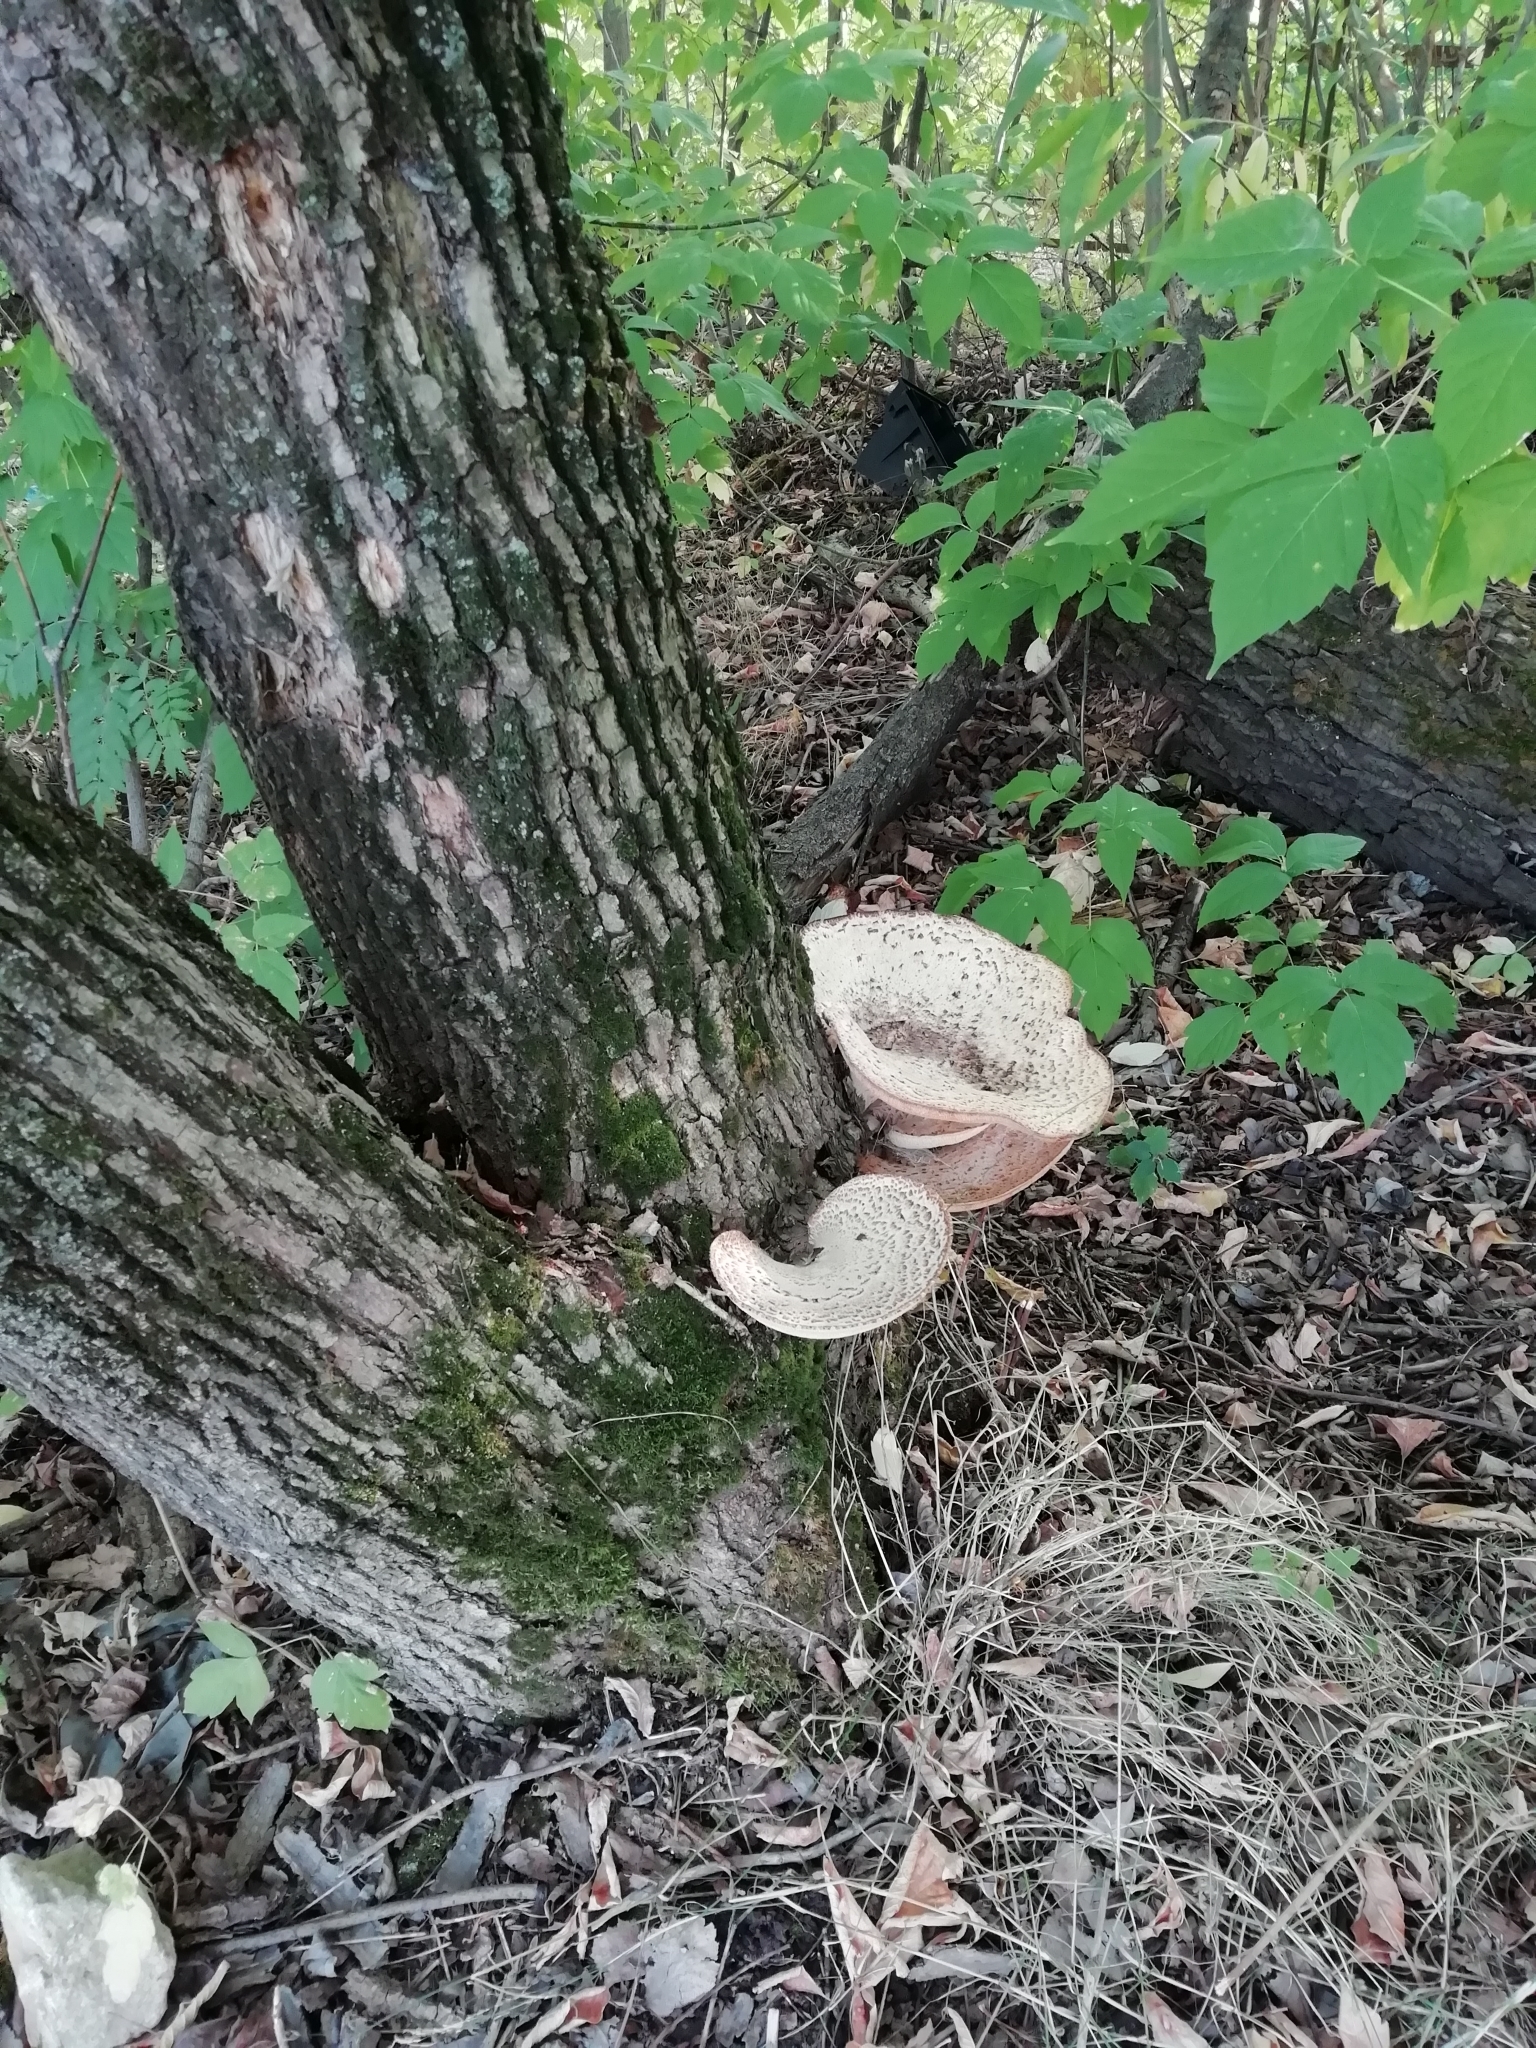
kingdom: Fungi
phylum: Basidiomycota
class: Agaricomycetes
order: Polyporales
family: Polyporaceae
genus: Cerioporus
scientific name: Cerioporus squamosus
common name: Dryad's saddle
